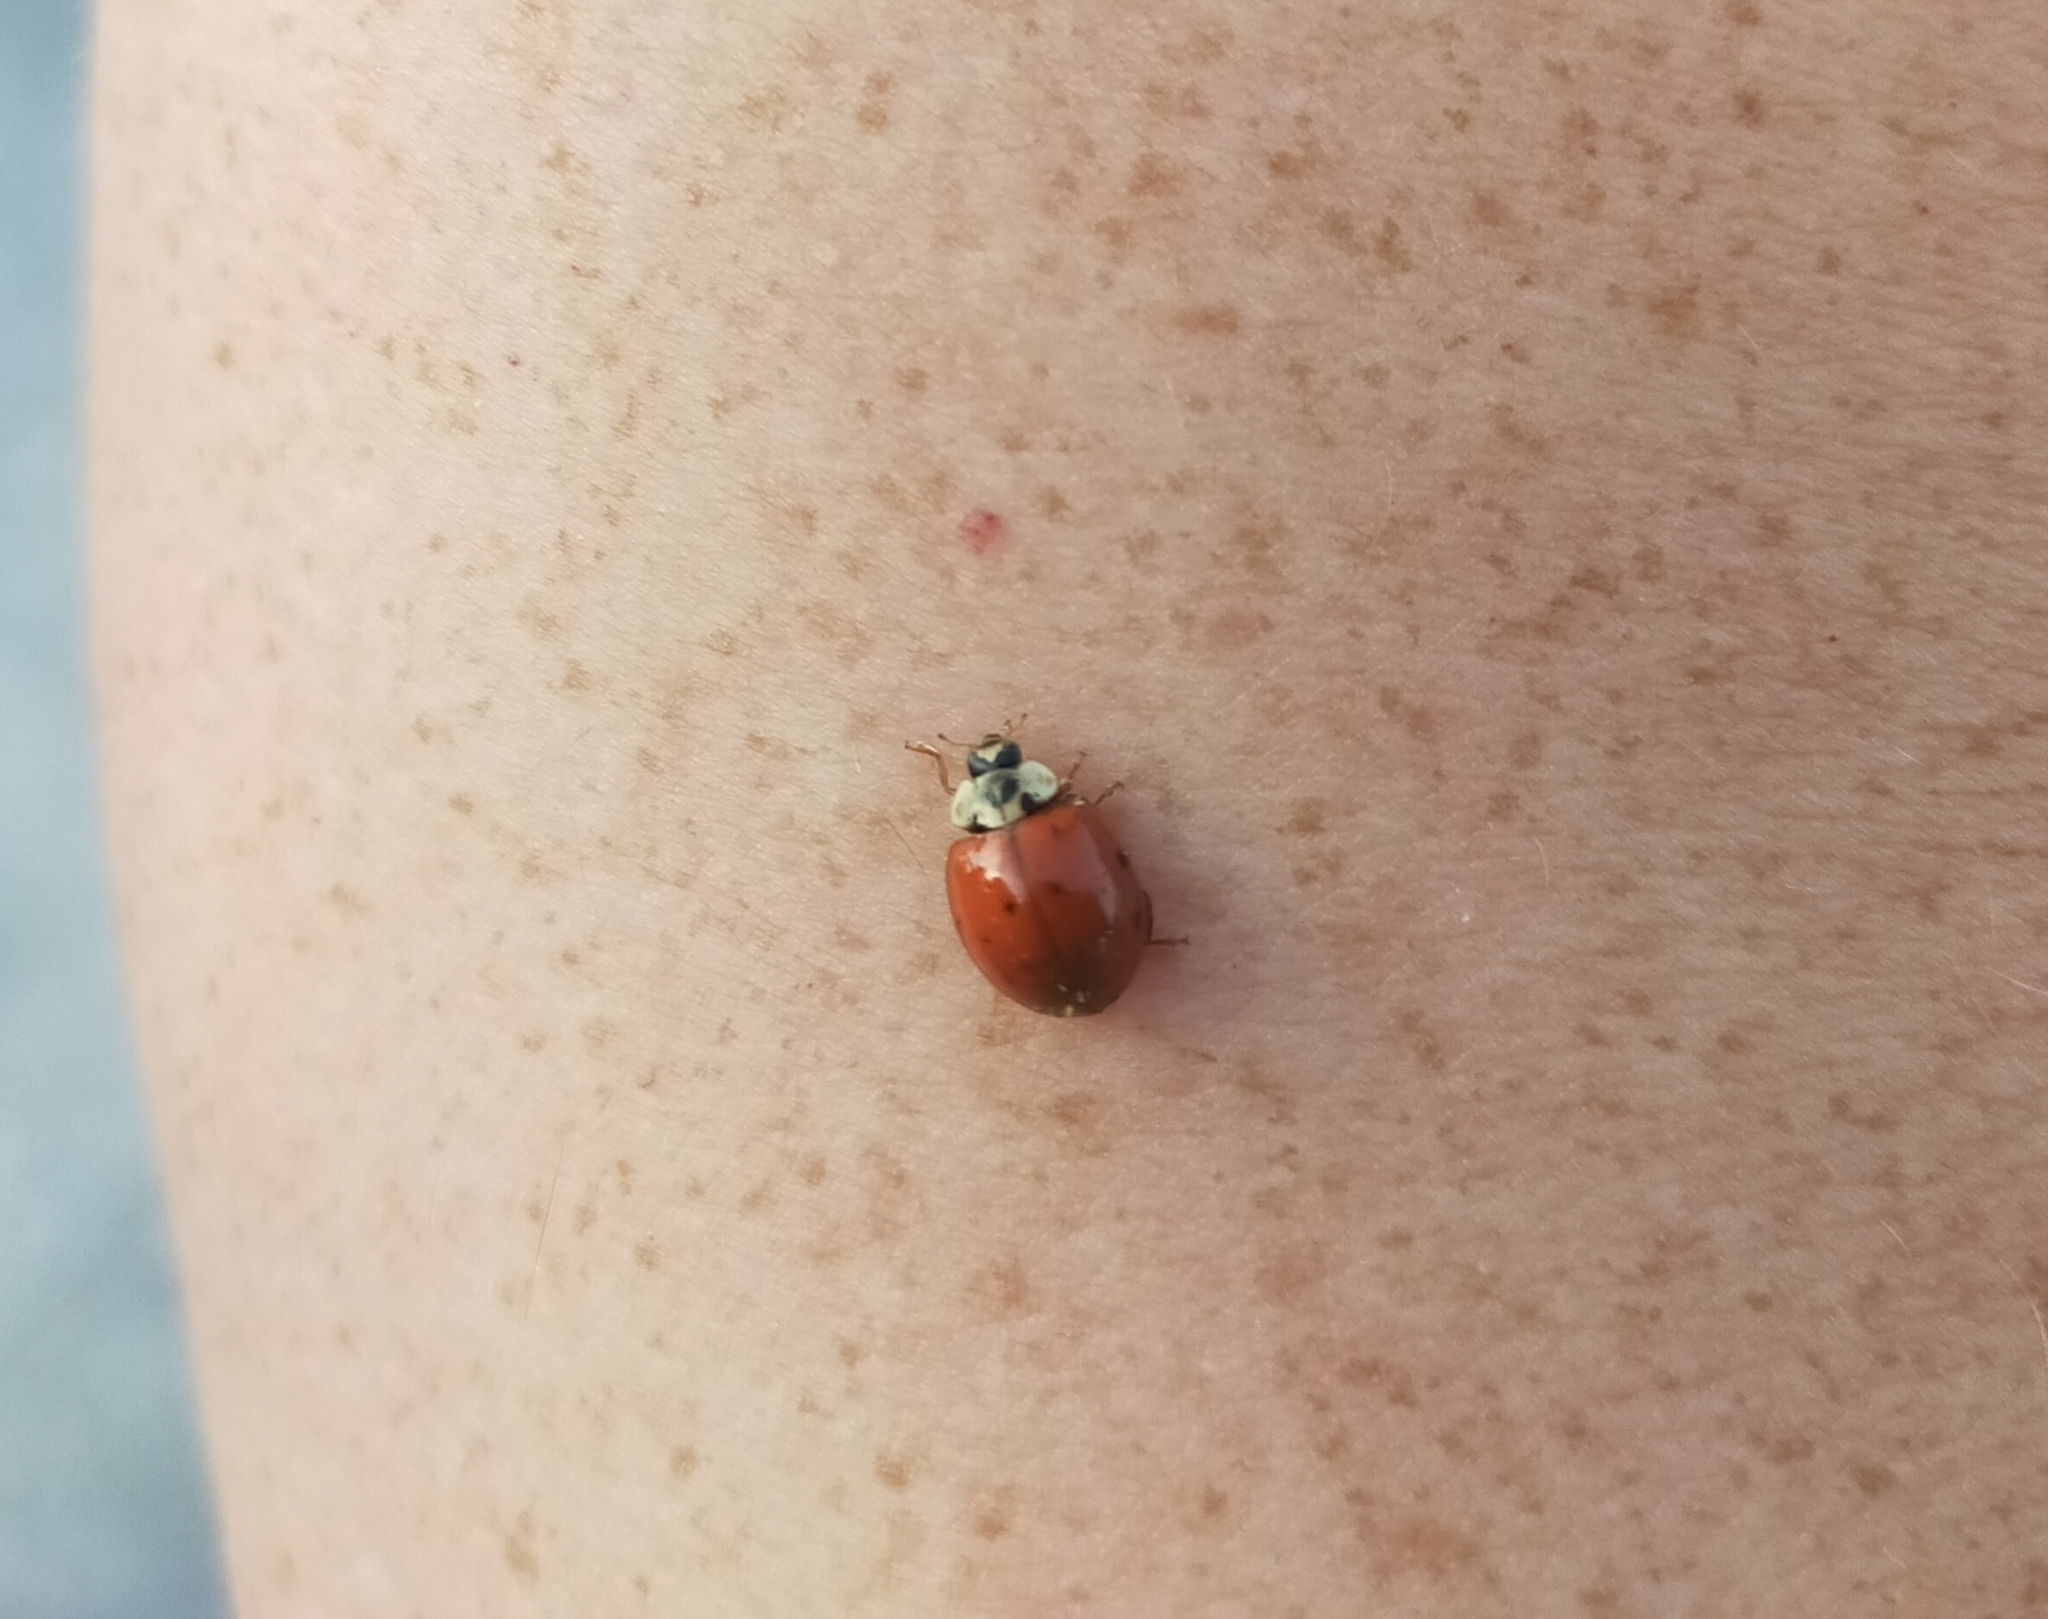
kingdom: Animalia
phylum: Arthropoda
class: Insecta
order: Coleoptera
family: Coccinellidae
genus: Harmonia
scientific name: Harmonia axyridis
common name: Harlequin ladybird
